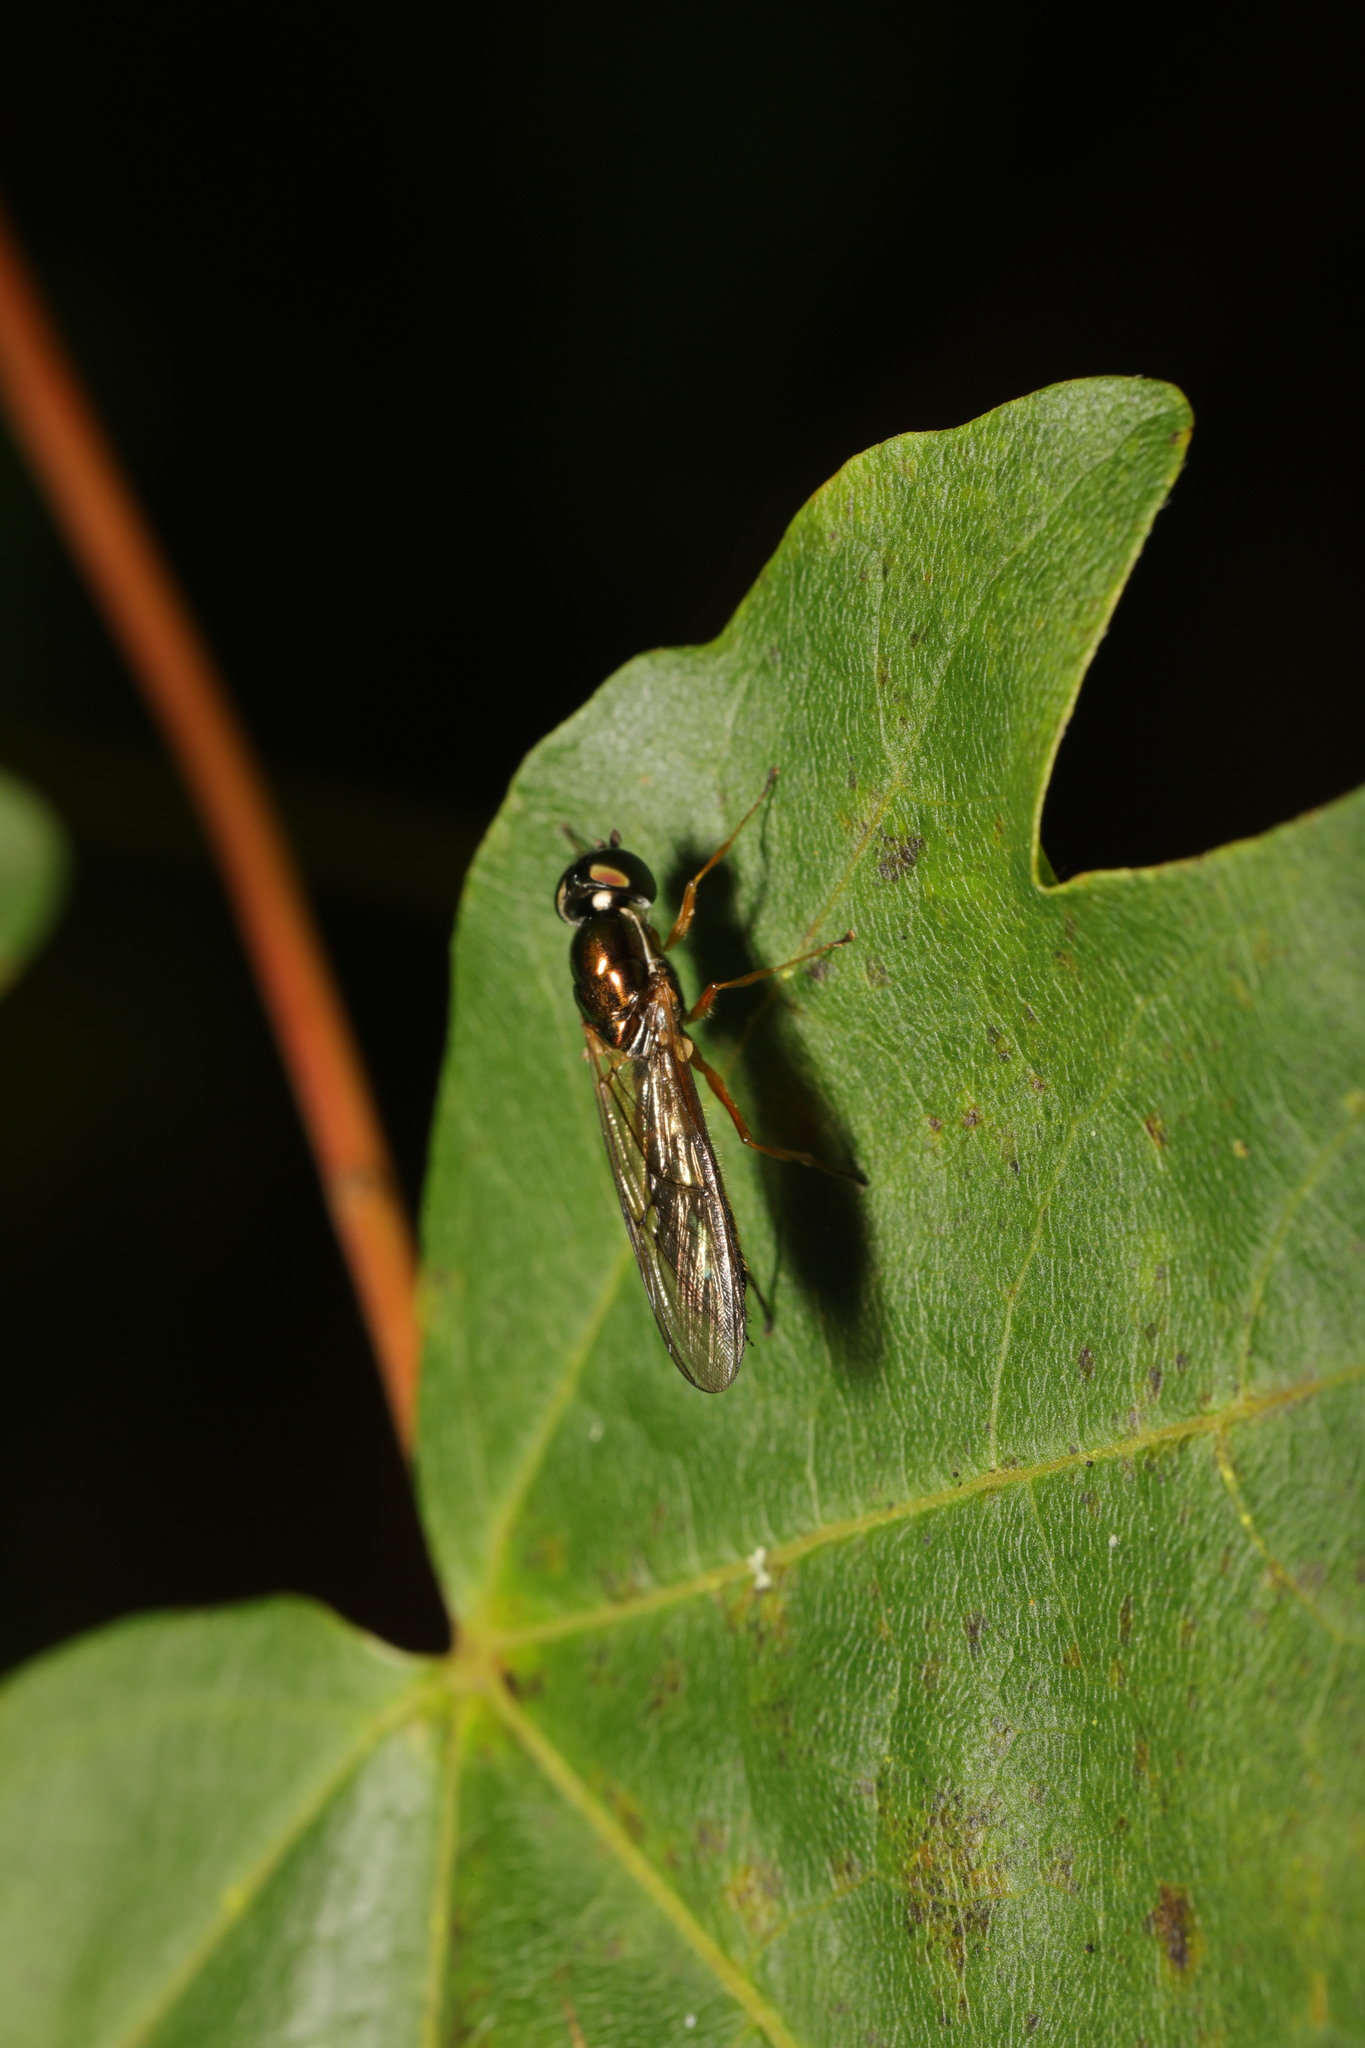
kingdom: Animalia
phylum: Arthropoda
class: Insecta
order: Diptera
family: Stratiomyidae
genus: Sargus
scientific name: Sargus bipunctatus
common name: Twin-spot centurion
